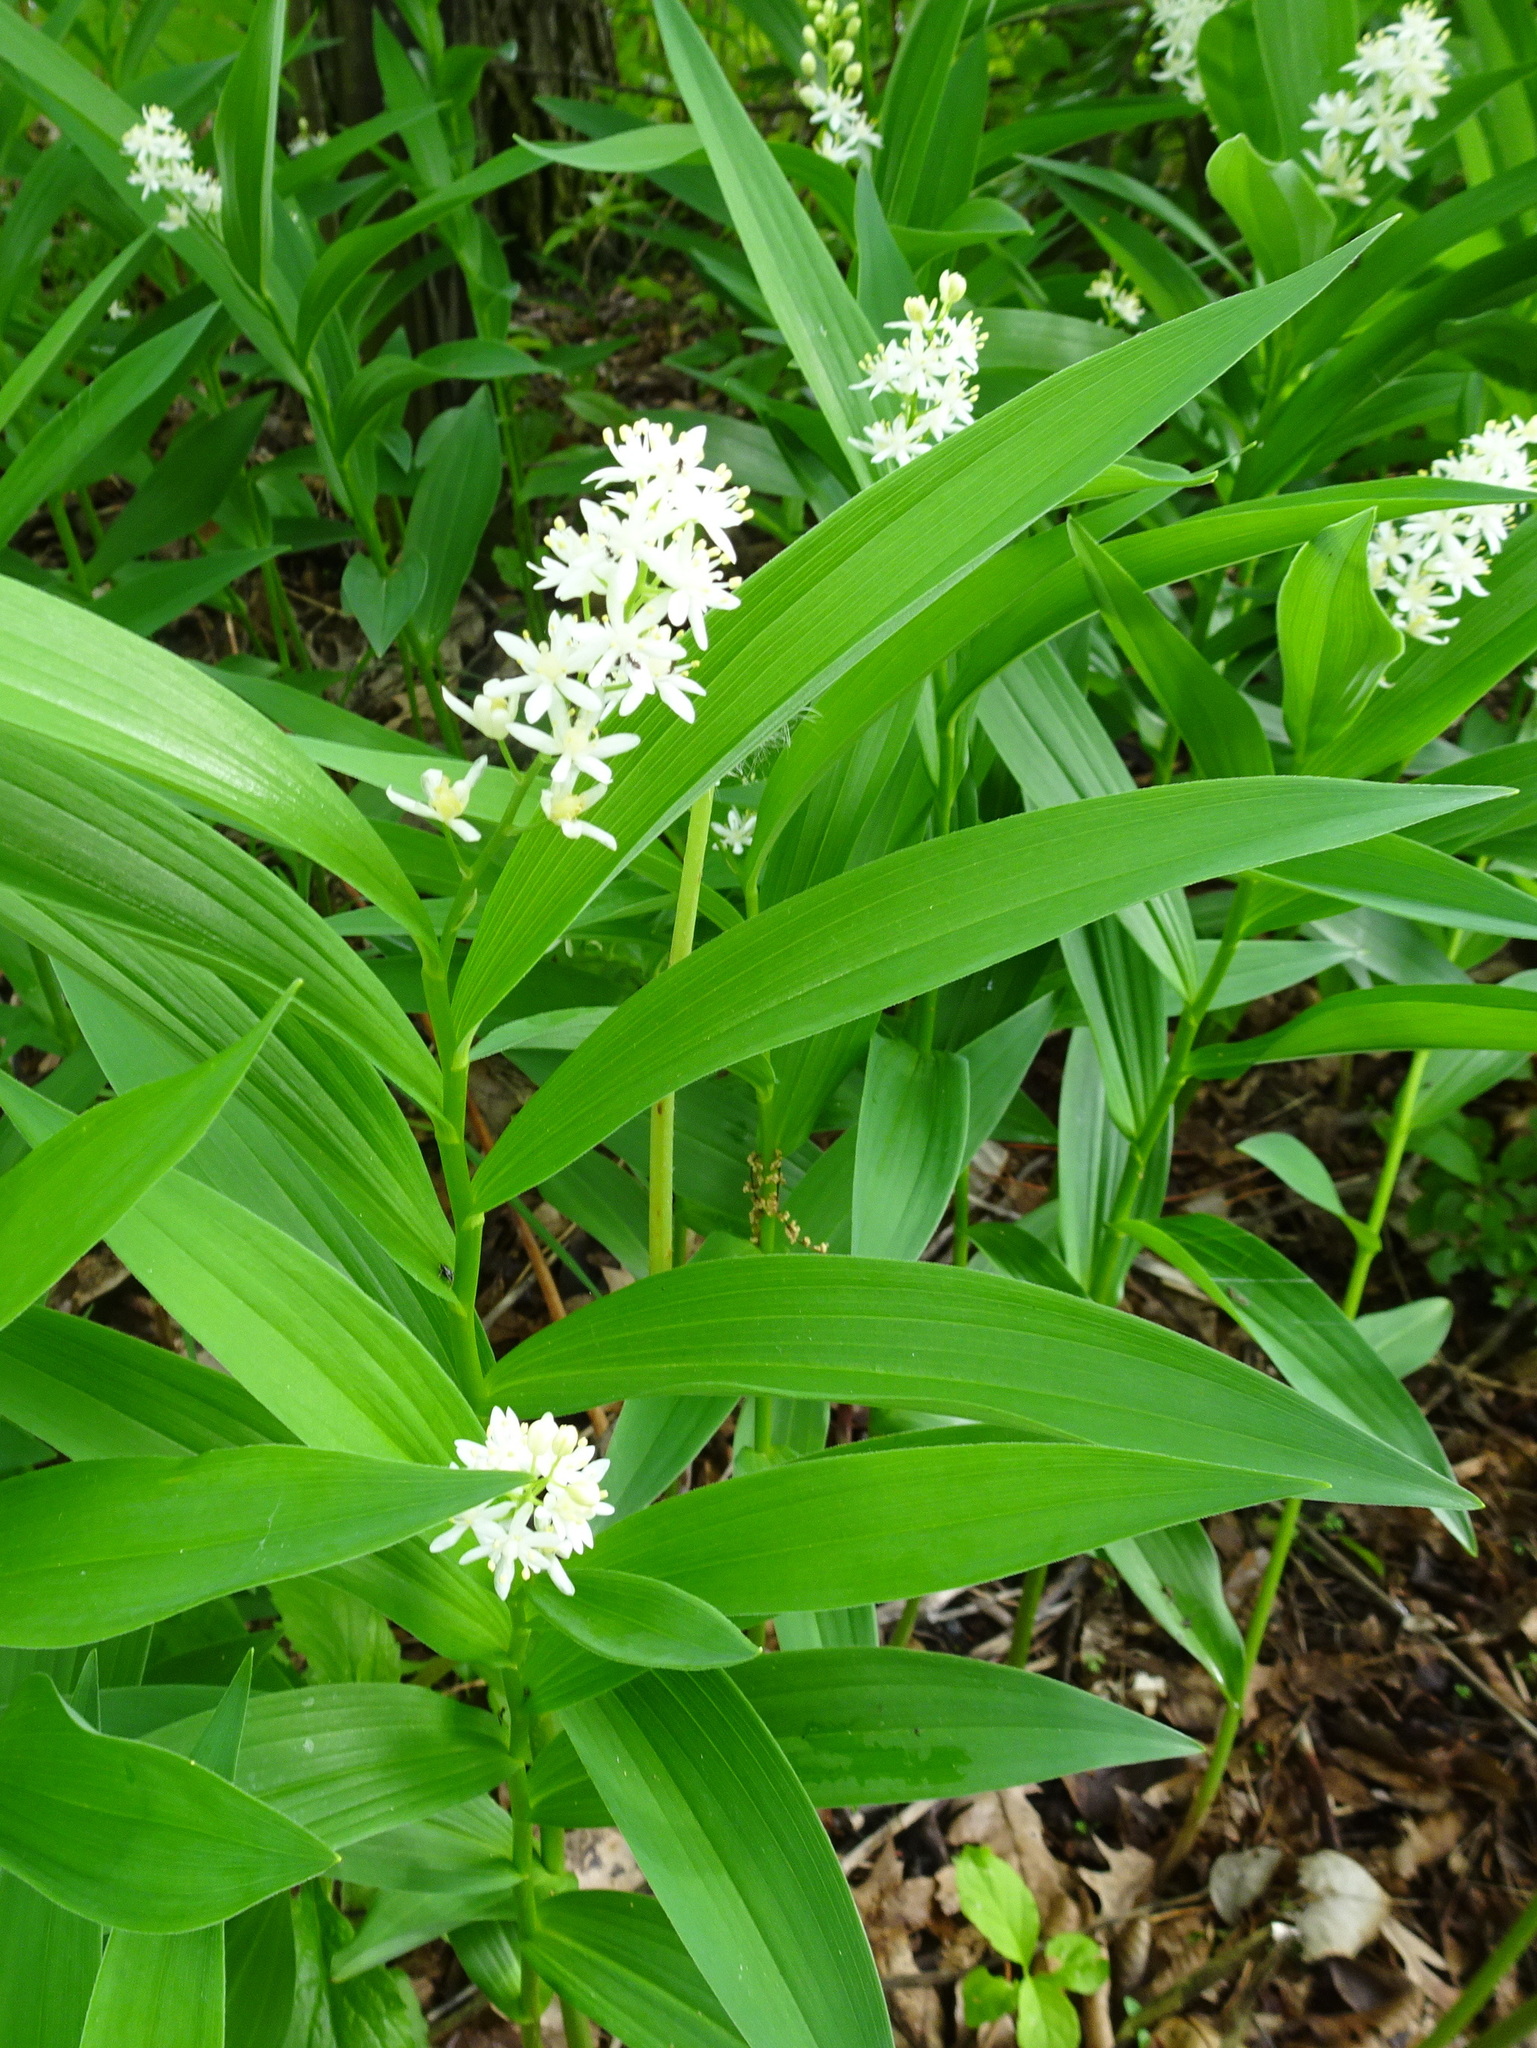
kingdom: Plantae
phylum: Tracheophyta
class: Liliopsida
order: Asparagales
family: Asparagaceae
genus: Maianthemum
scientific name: Maianthemum stellatum
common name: Little false solomon's seal
